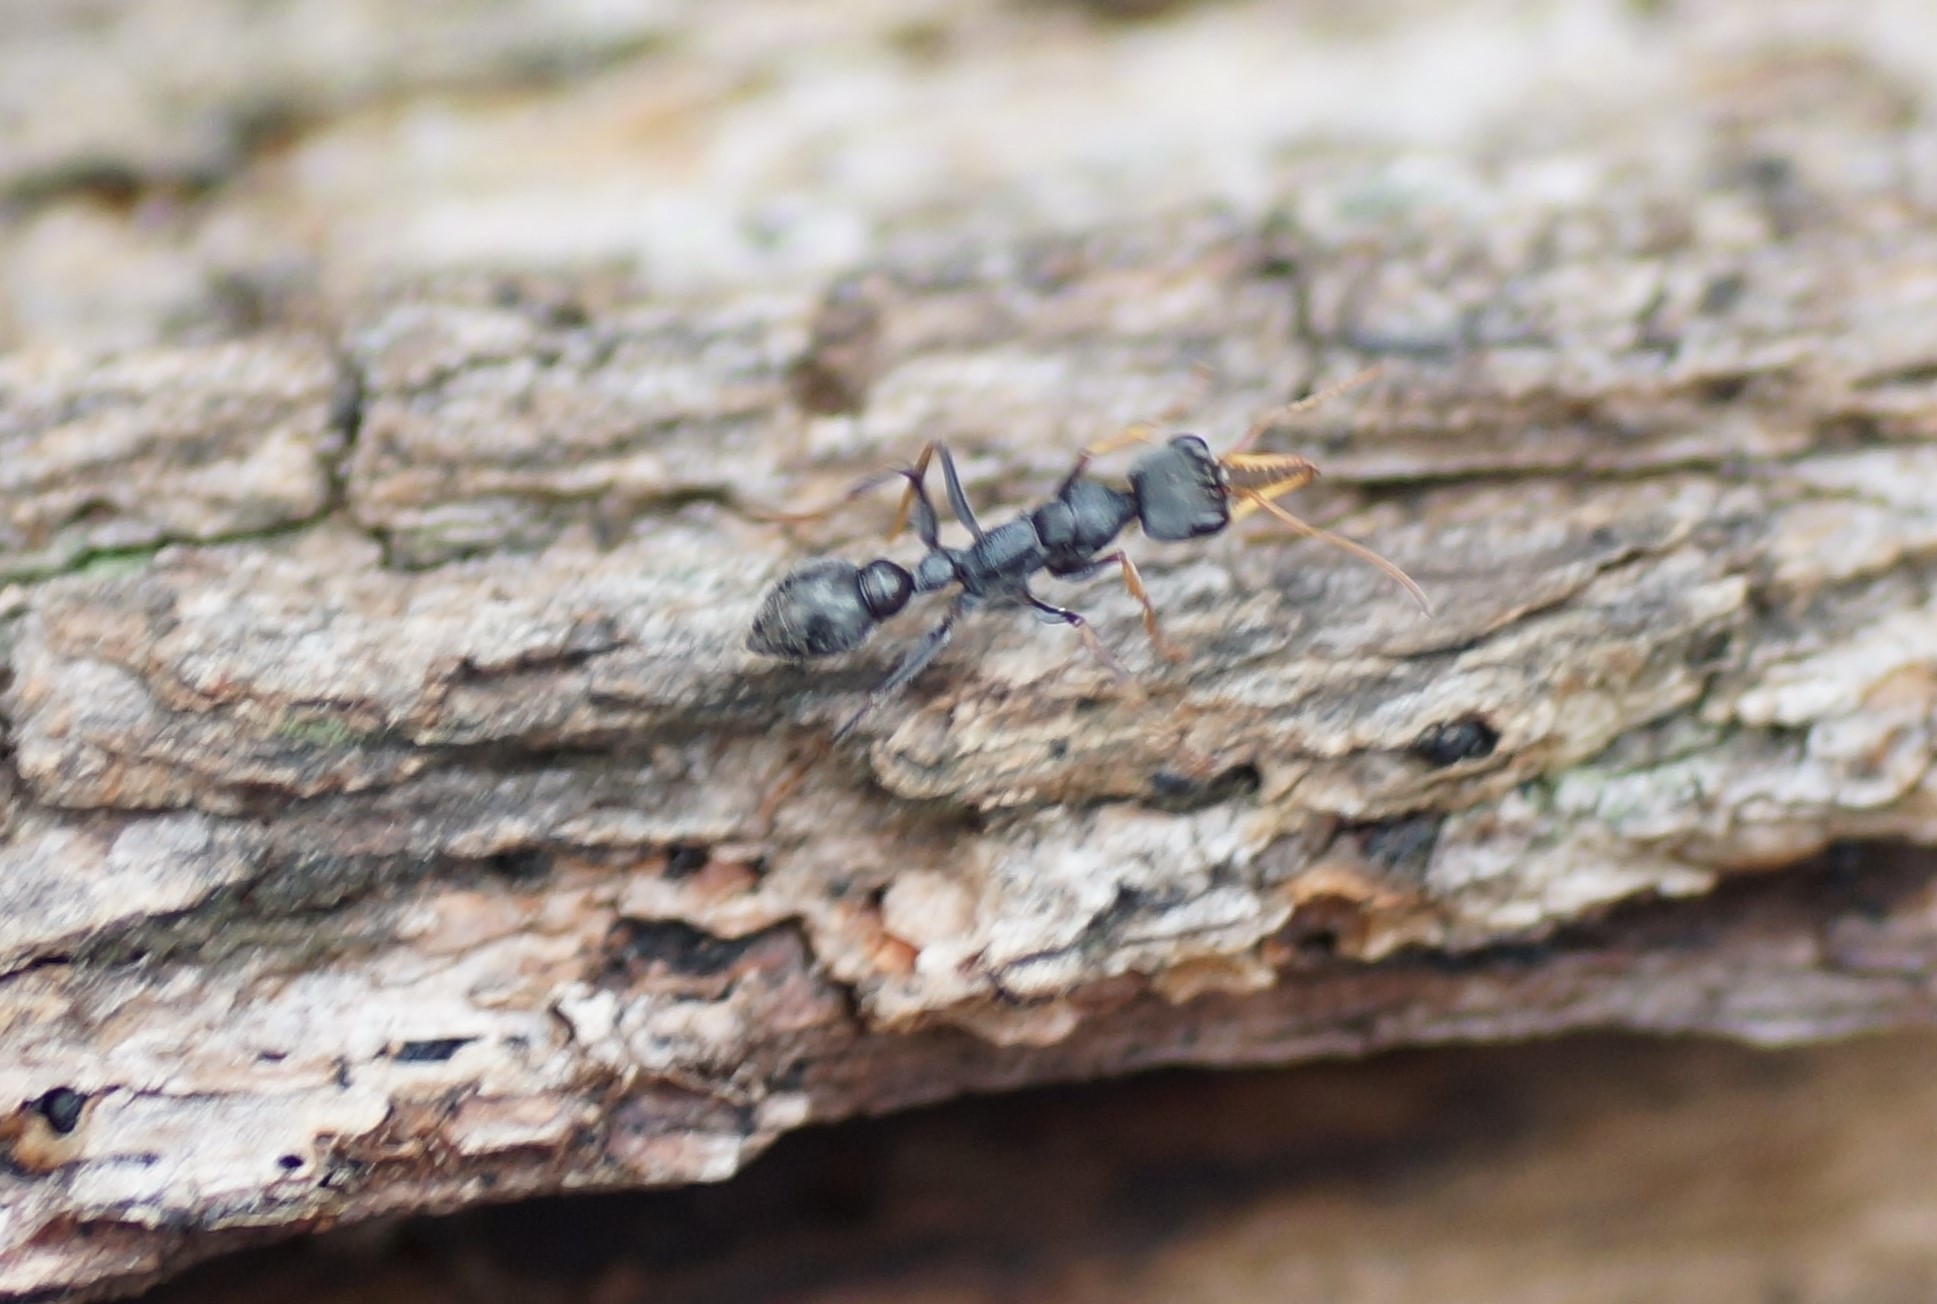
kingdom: Animalia
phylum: Arthropoda
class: Insecta
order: Hymenoptera
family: Formicidae
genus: Myrmecia
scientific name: Myrmecia pilosula
